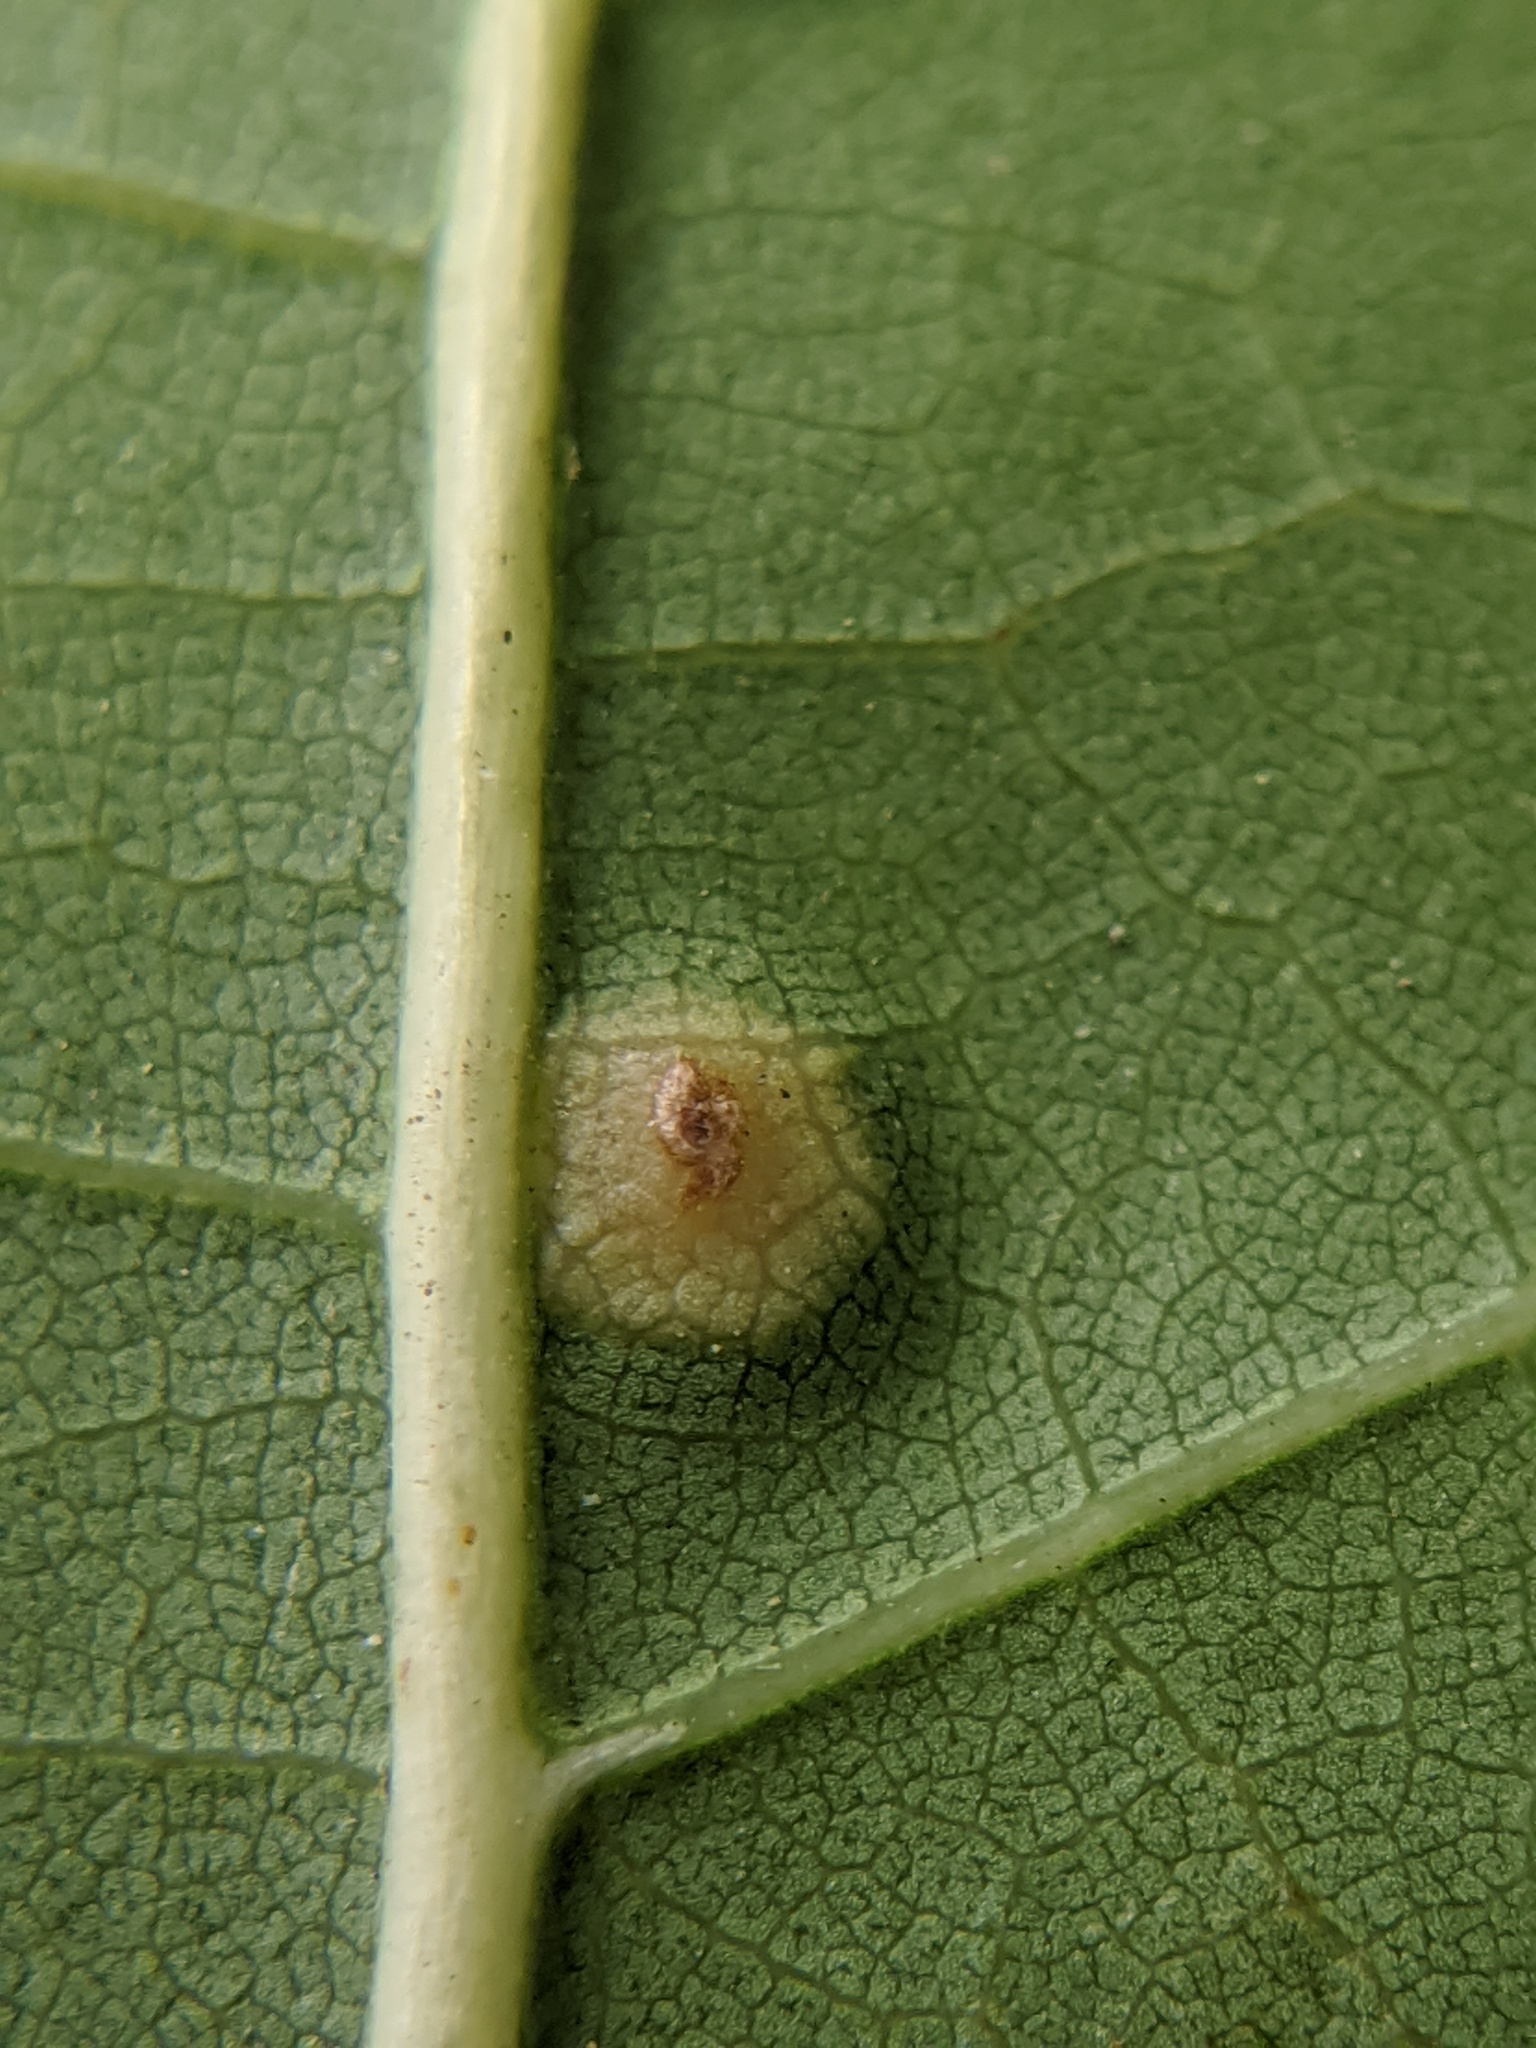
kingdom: Animalia
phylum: Arthropoda
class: Insecta
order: Diptera
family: Cecidomyiidae
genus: Polystepha
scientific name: Polystepha pilulae
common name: Oak leaf gall midge
